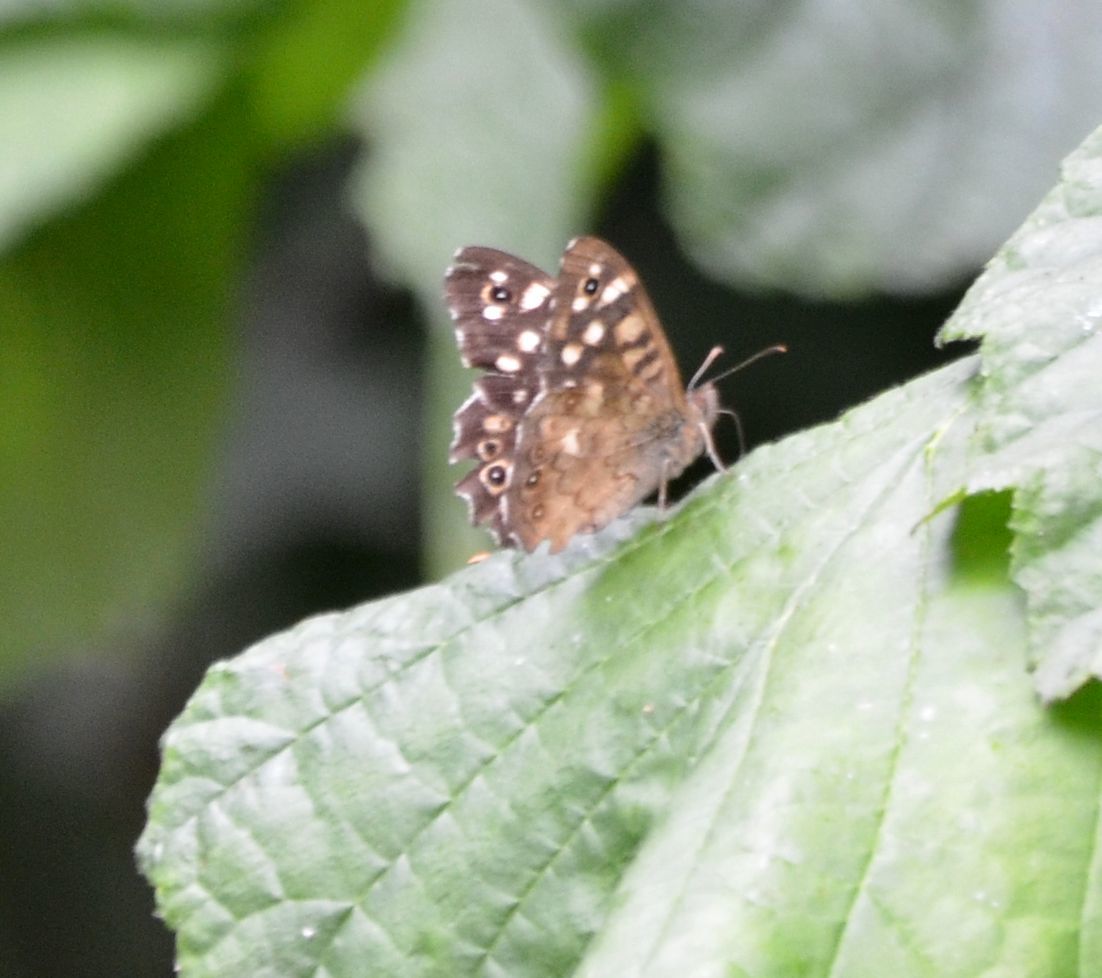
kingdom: Animalia
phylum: Arthropoda
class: Insecta
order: Lepidoptera
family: Nymphalidae
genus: Pararge
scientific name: Pararge aegeria
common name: Speckled wood
